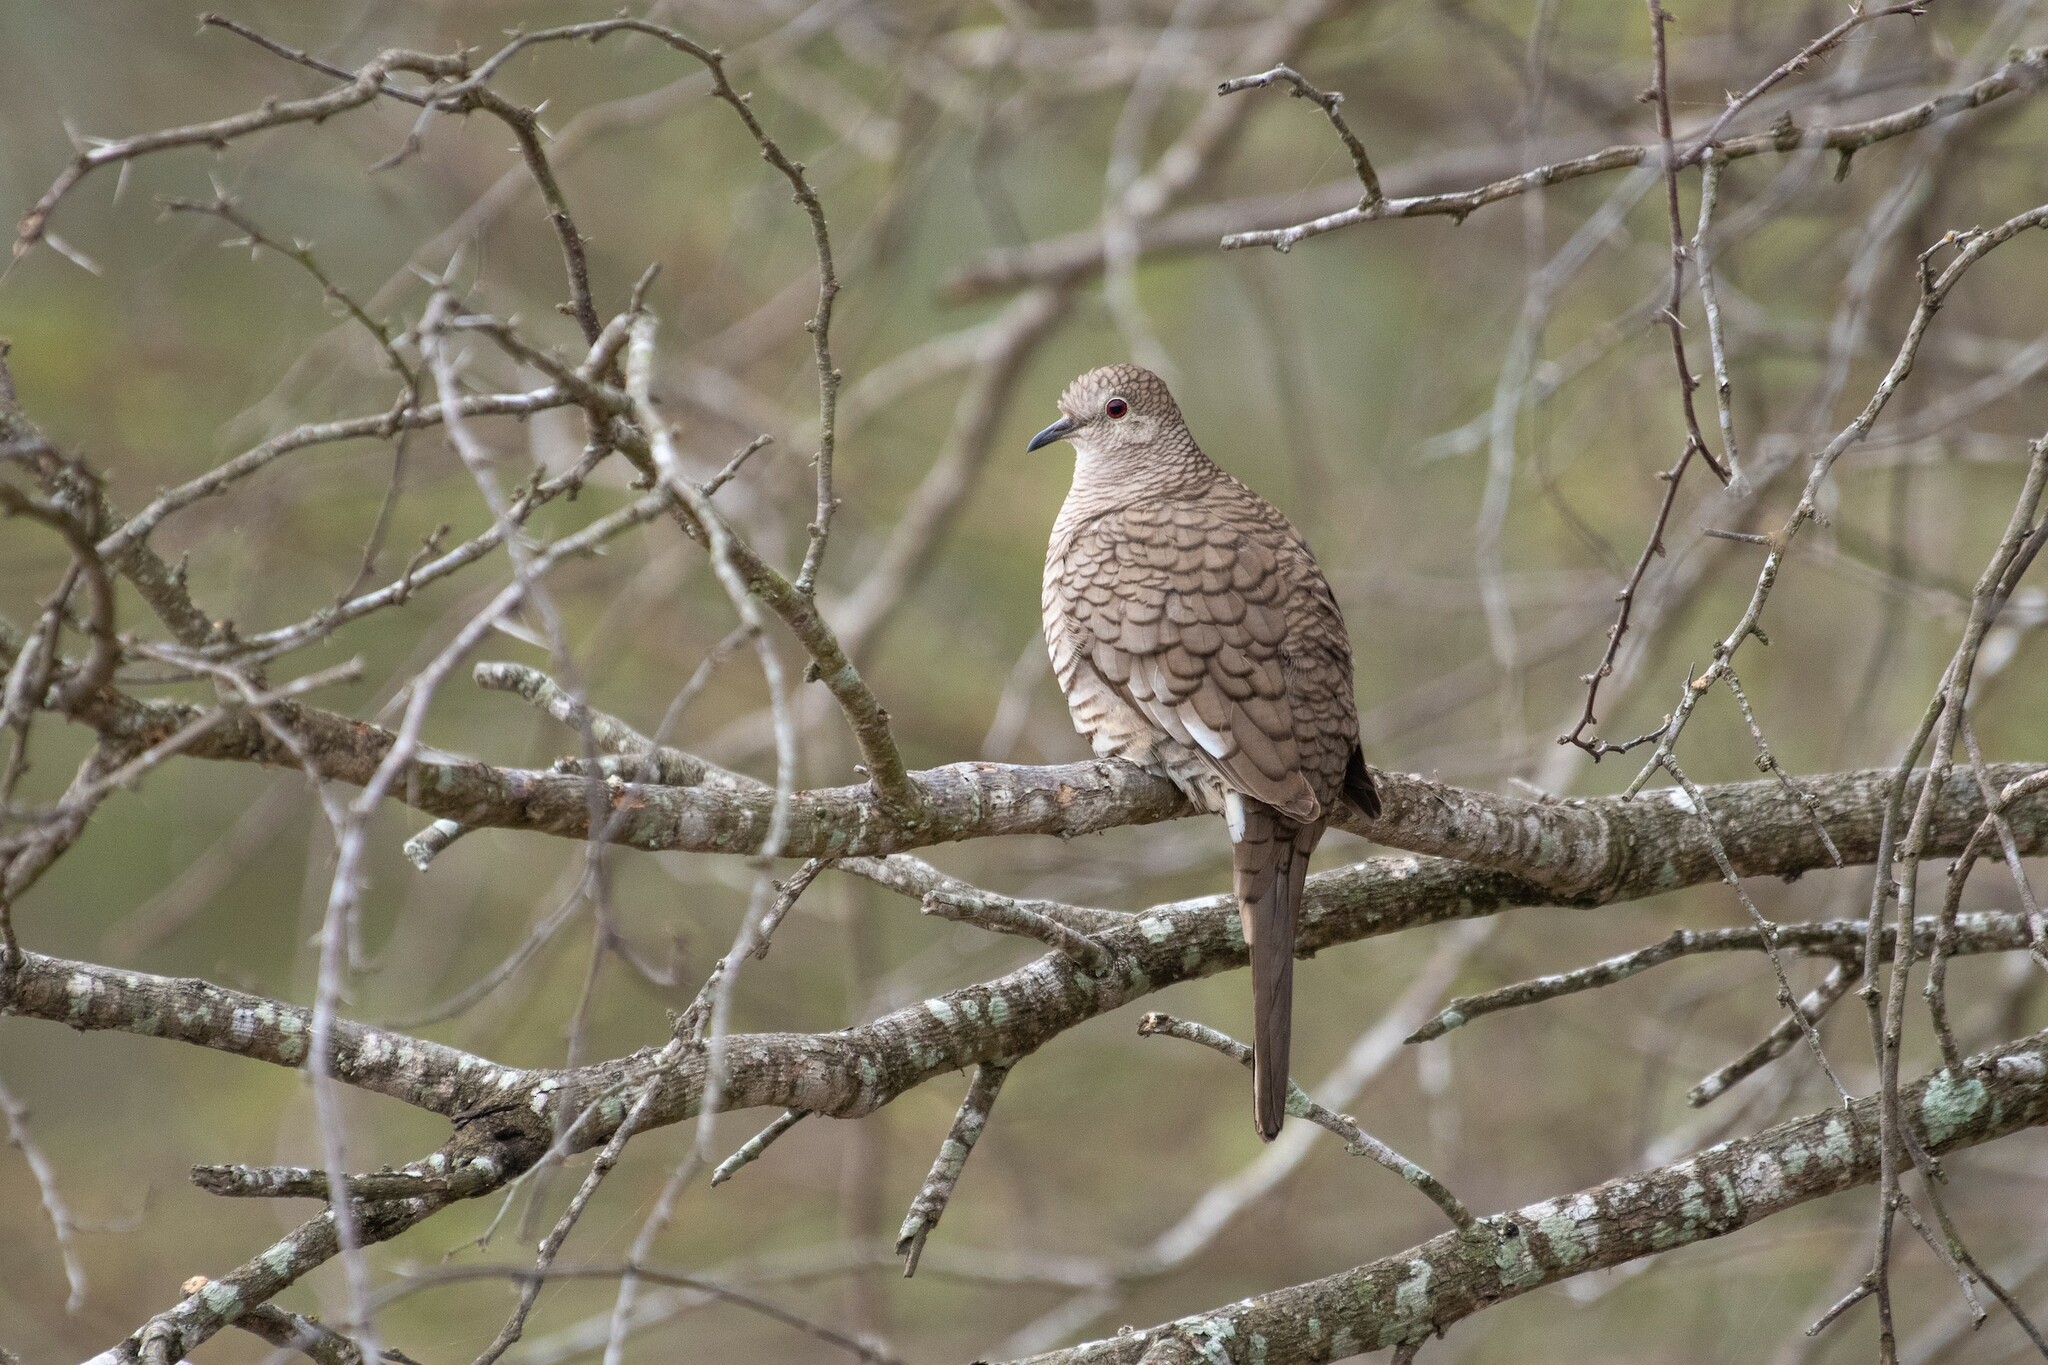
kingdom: Animalia
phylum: Chordata
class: Aves
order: Columbiformes
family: Columbidae
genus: Columbina
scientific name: Columbina inca
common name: Inca dove
